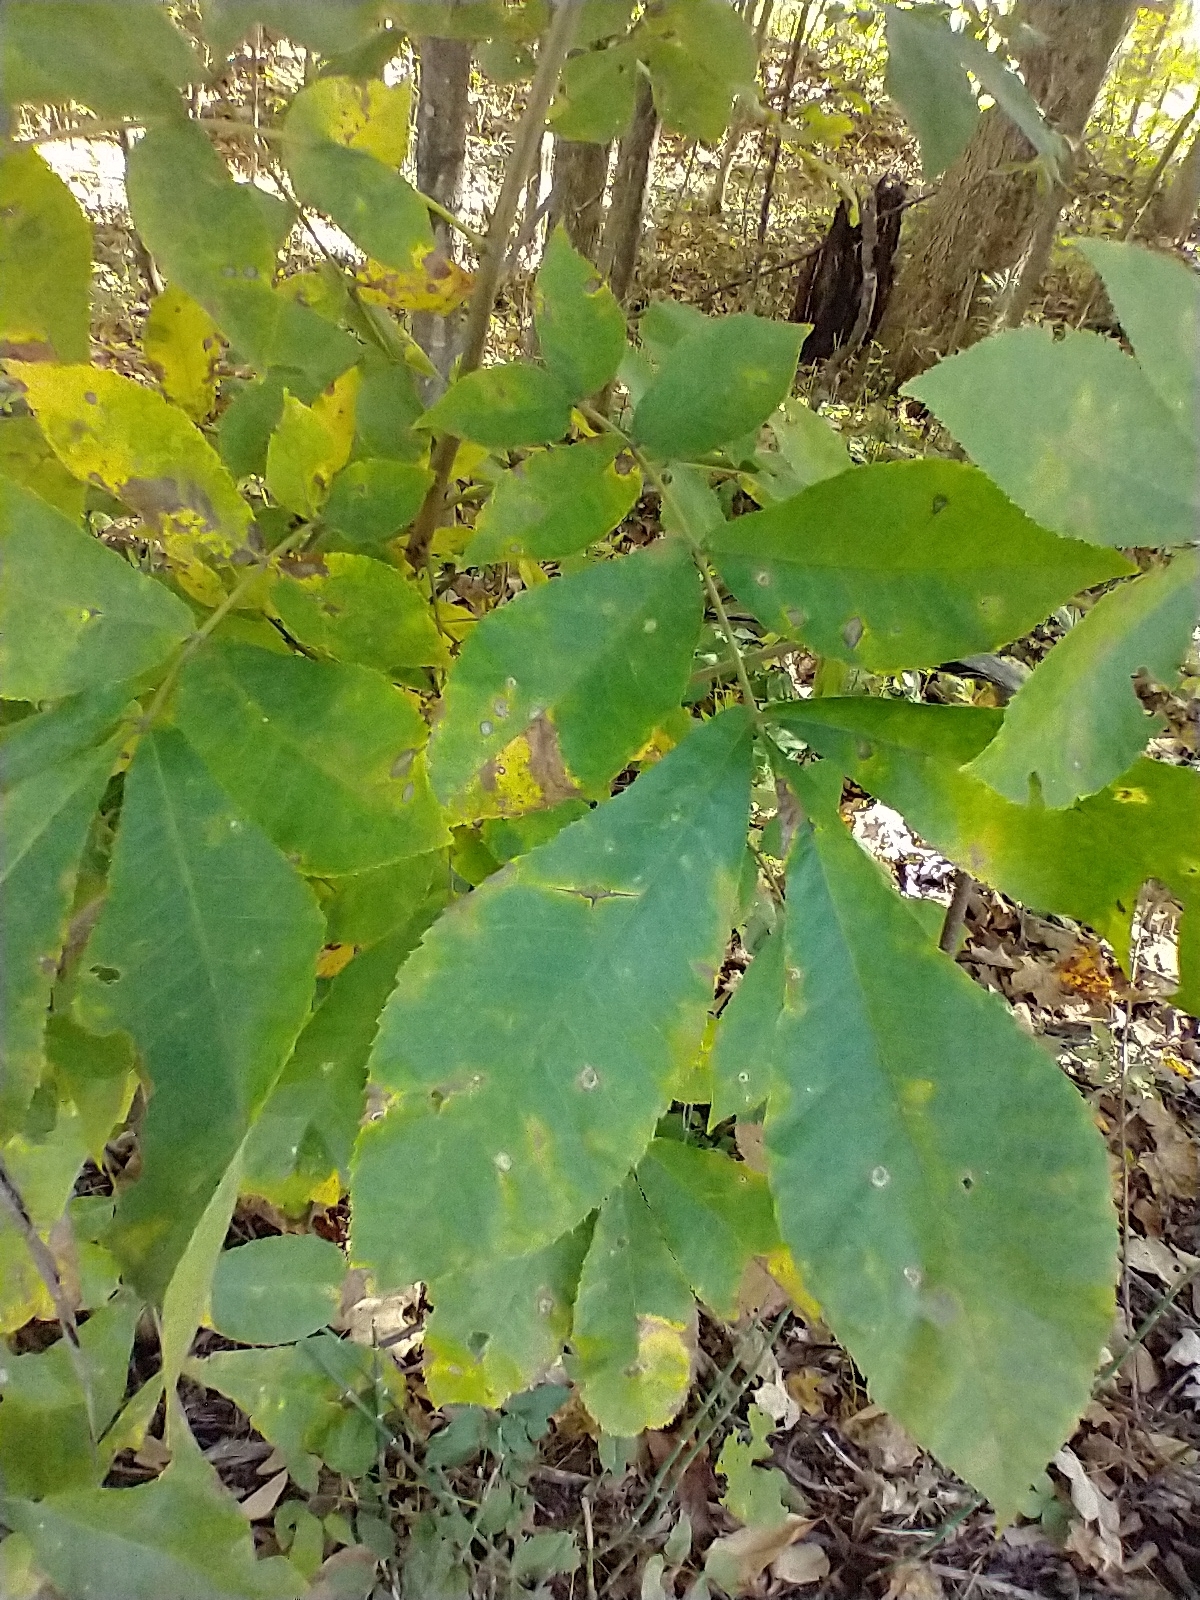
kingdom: Plantae
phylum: Tracheophyta
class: Magnoliopsida
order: Fagales
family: Juglandaceae
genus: Carya
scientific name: Carya cordiformis
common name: Bitternut hickory
